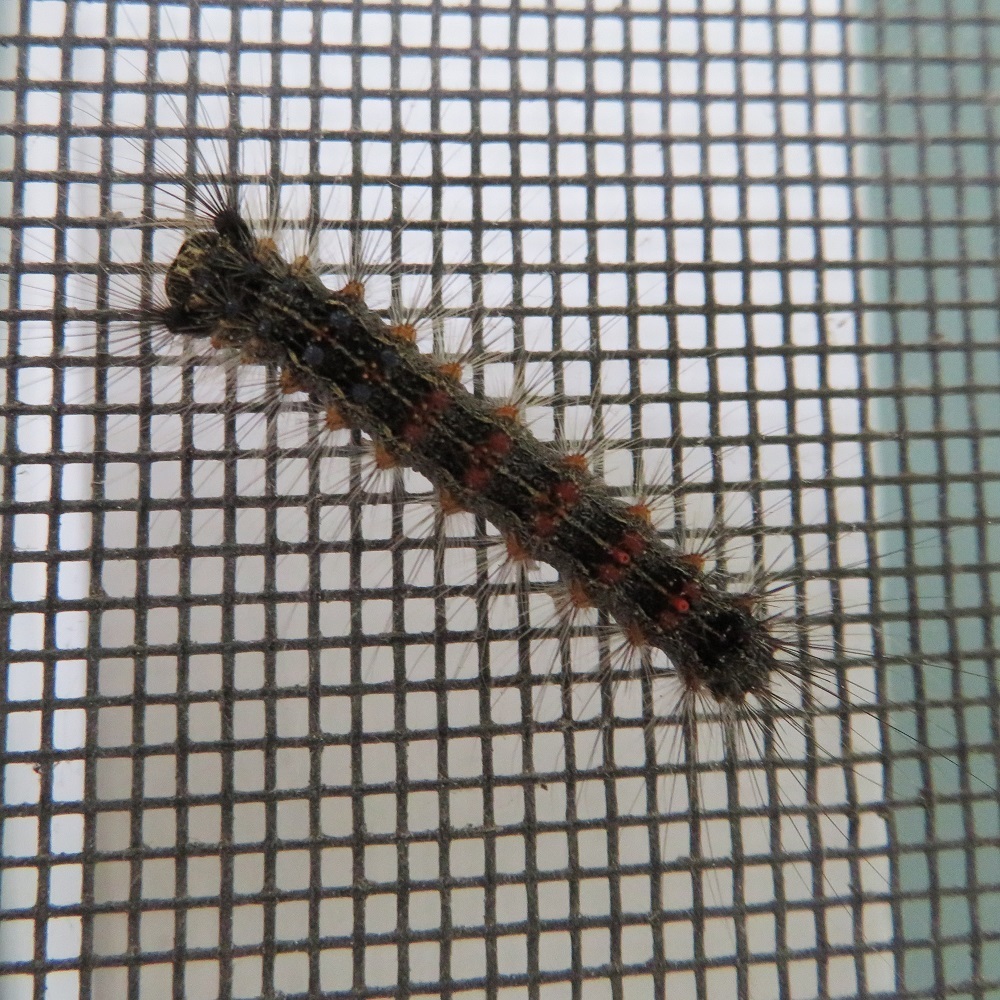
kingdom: Animalia
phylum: Arthropoda
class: Insecta
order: Lepidoptera
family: Erebidae
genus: Lymantria
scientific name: Lymantria dispar
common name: Gypsy moth
